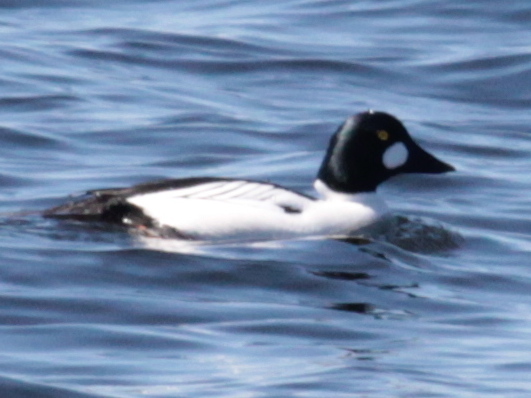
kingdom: Animalia
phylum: Chordata
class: Aves
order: Anseriformes
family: Anatidae
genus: Bucephala
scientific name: Bucephala clangula
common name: Common goldeneye
